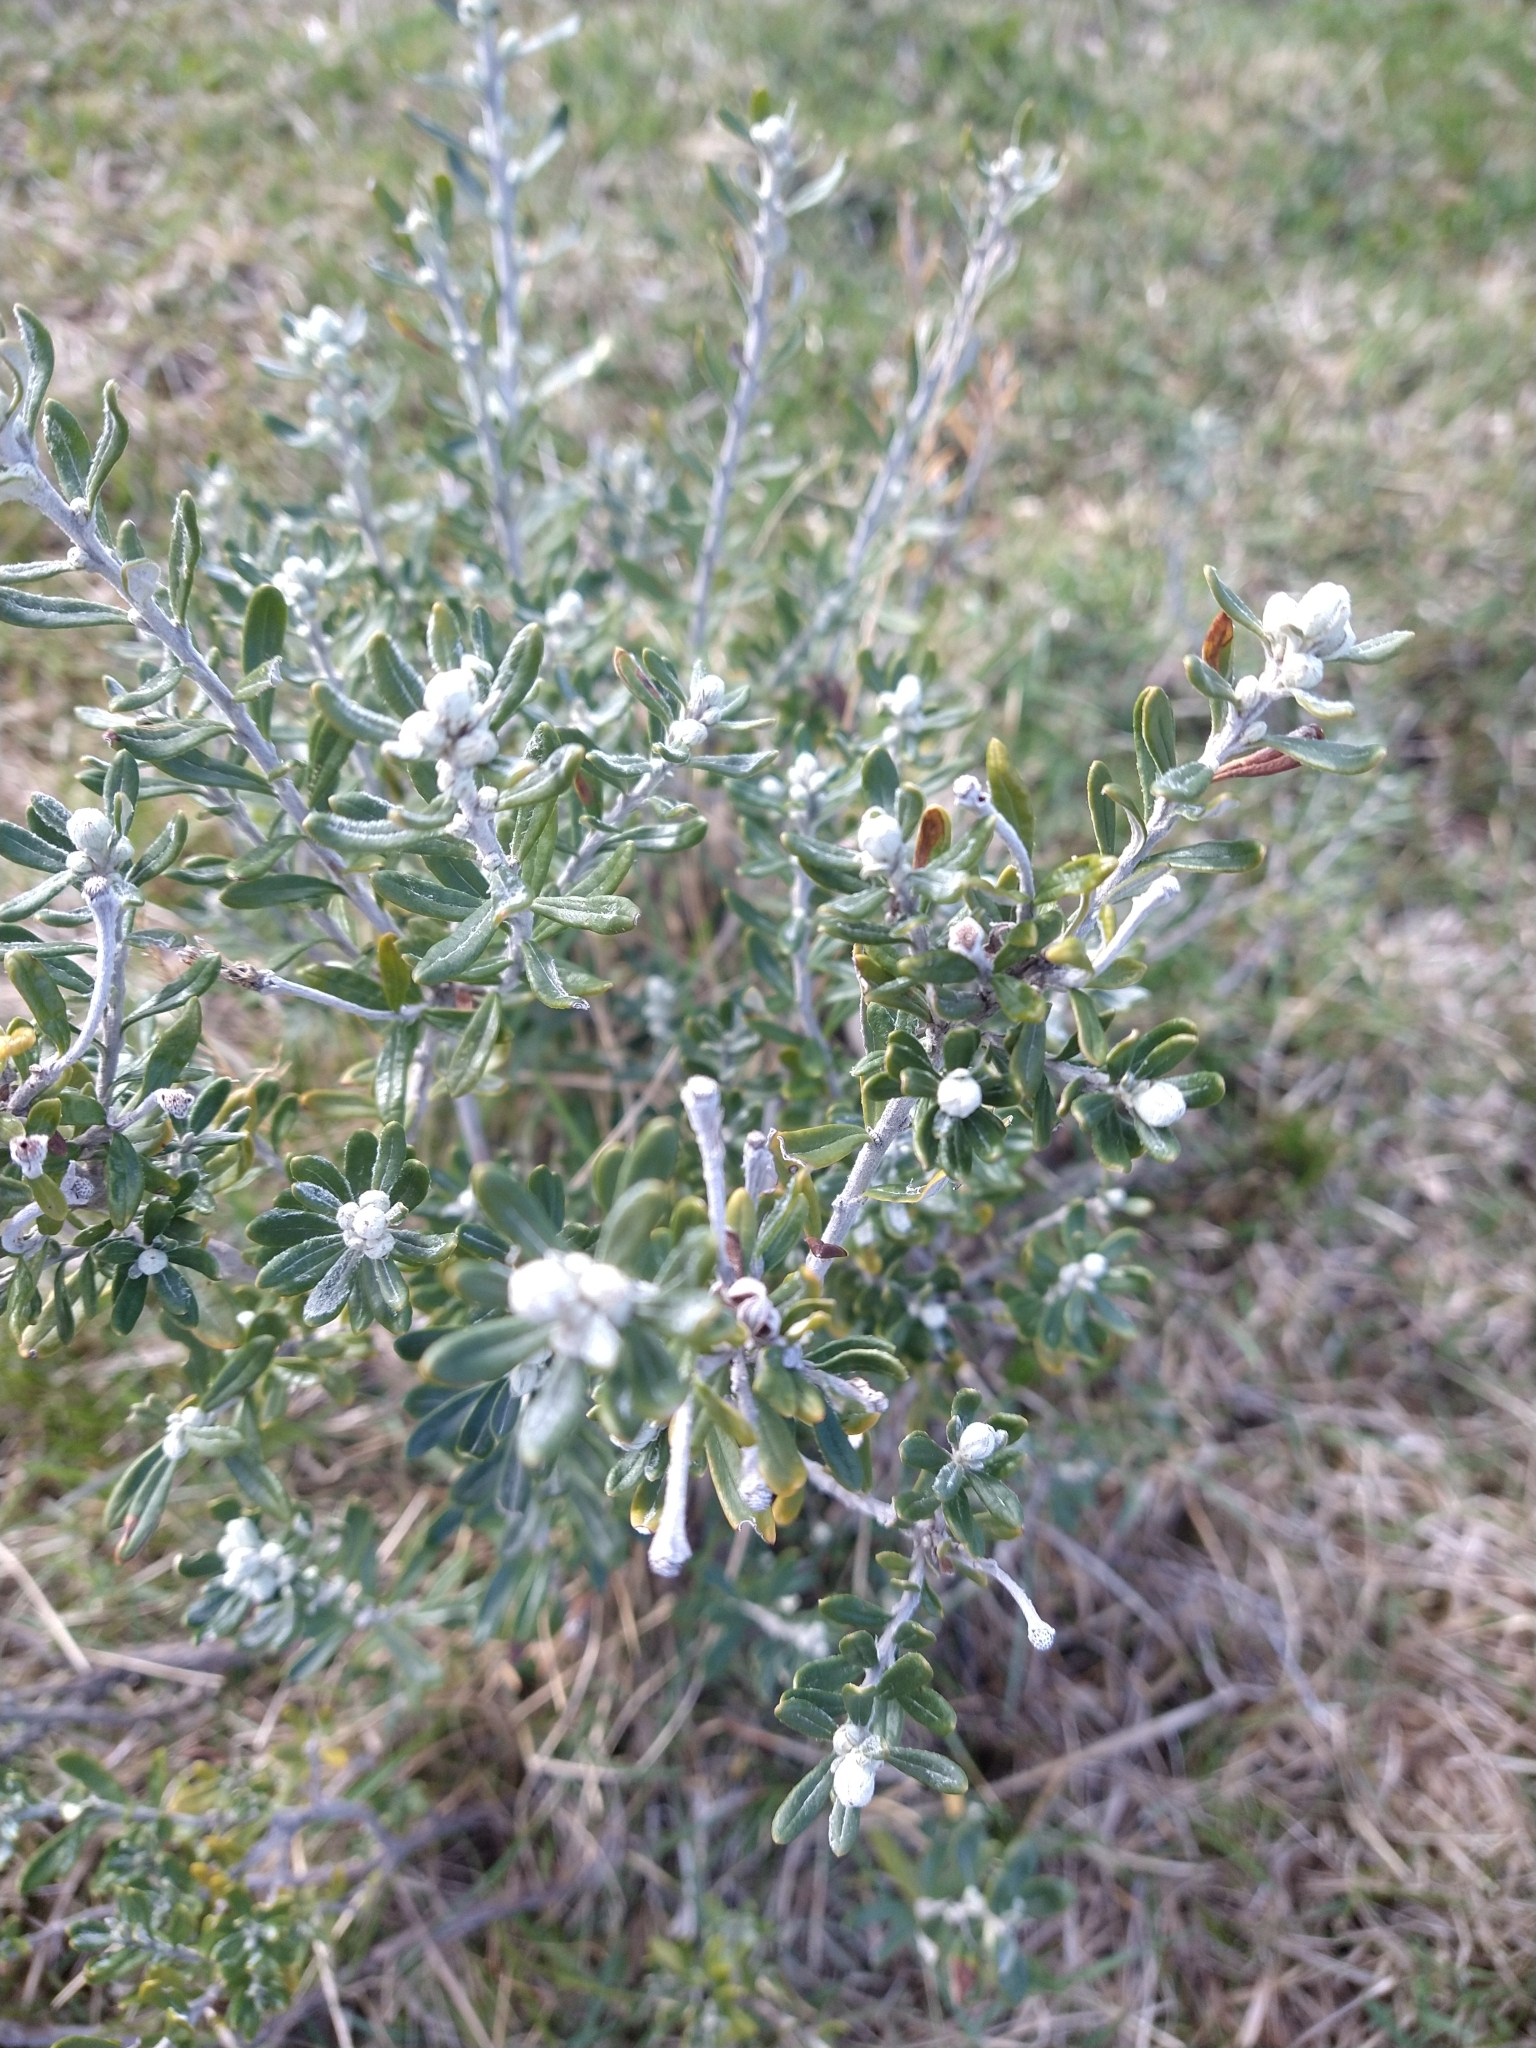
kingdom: Plantae
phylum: Tracheophyta
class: Magnoliopsida
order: Asterales
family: Asteraceae
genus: Chiliotrichum
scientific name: Chiliotrichum diffusum
